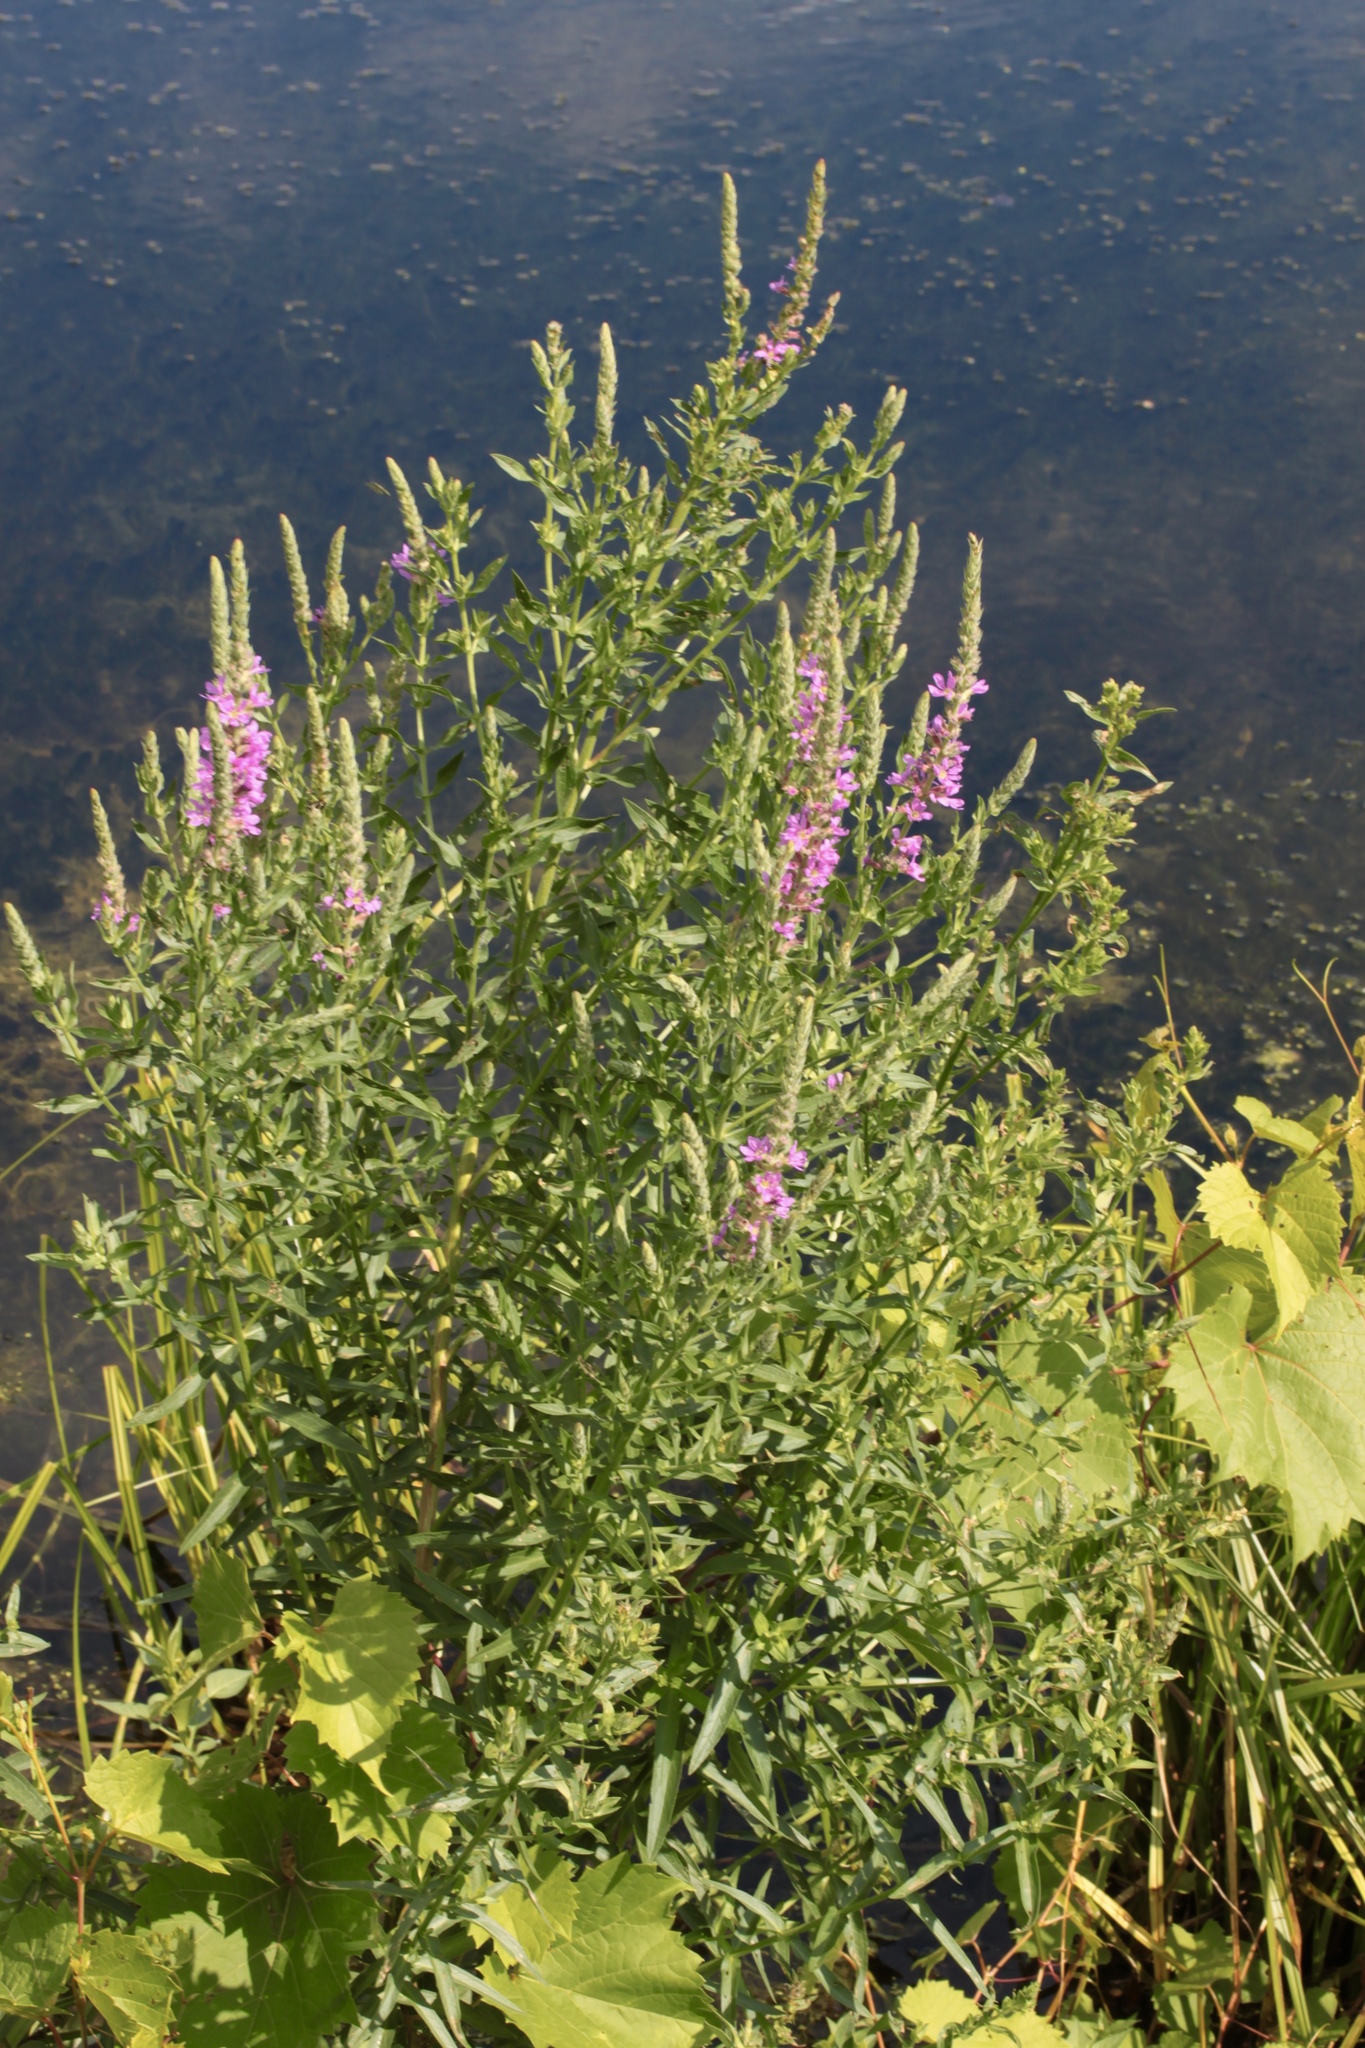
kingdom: Plantae
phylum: Tracheophyta
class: Magnoliopsida
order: Myrtales
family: Lythraceae
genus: Lythrum
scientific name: Lythrum salicaria
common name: Purple loosestrife
